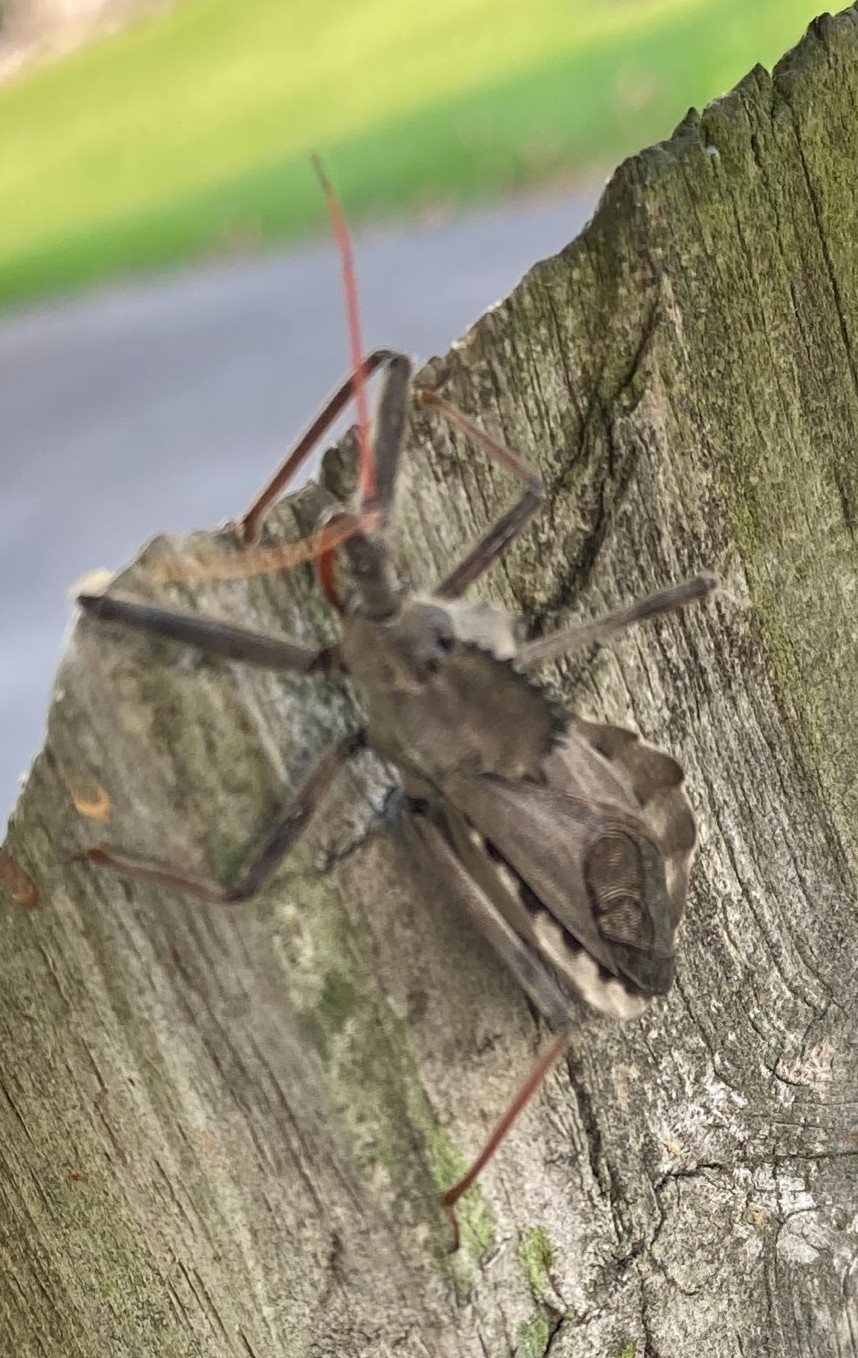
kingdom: Animalia
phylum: Arthropoda
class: Insecta
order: Hemiptera
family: Reduviidae
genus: Arilus
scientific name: Arilus cristatus
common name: North american wheel bug
